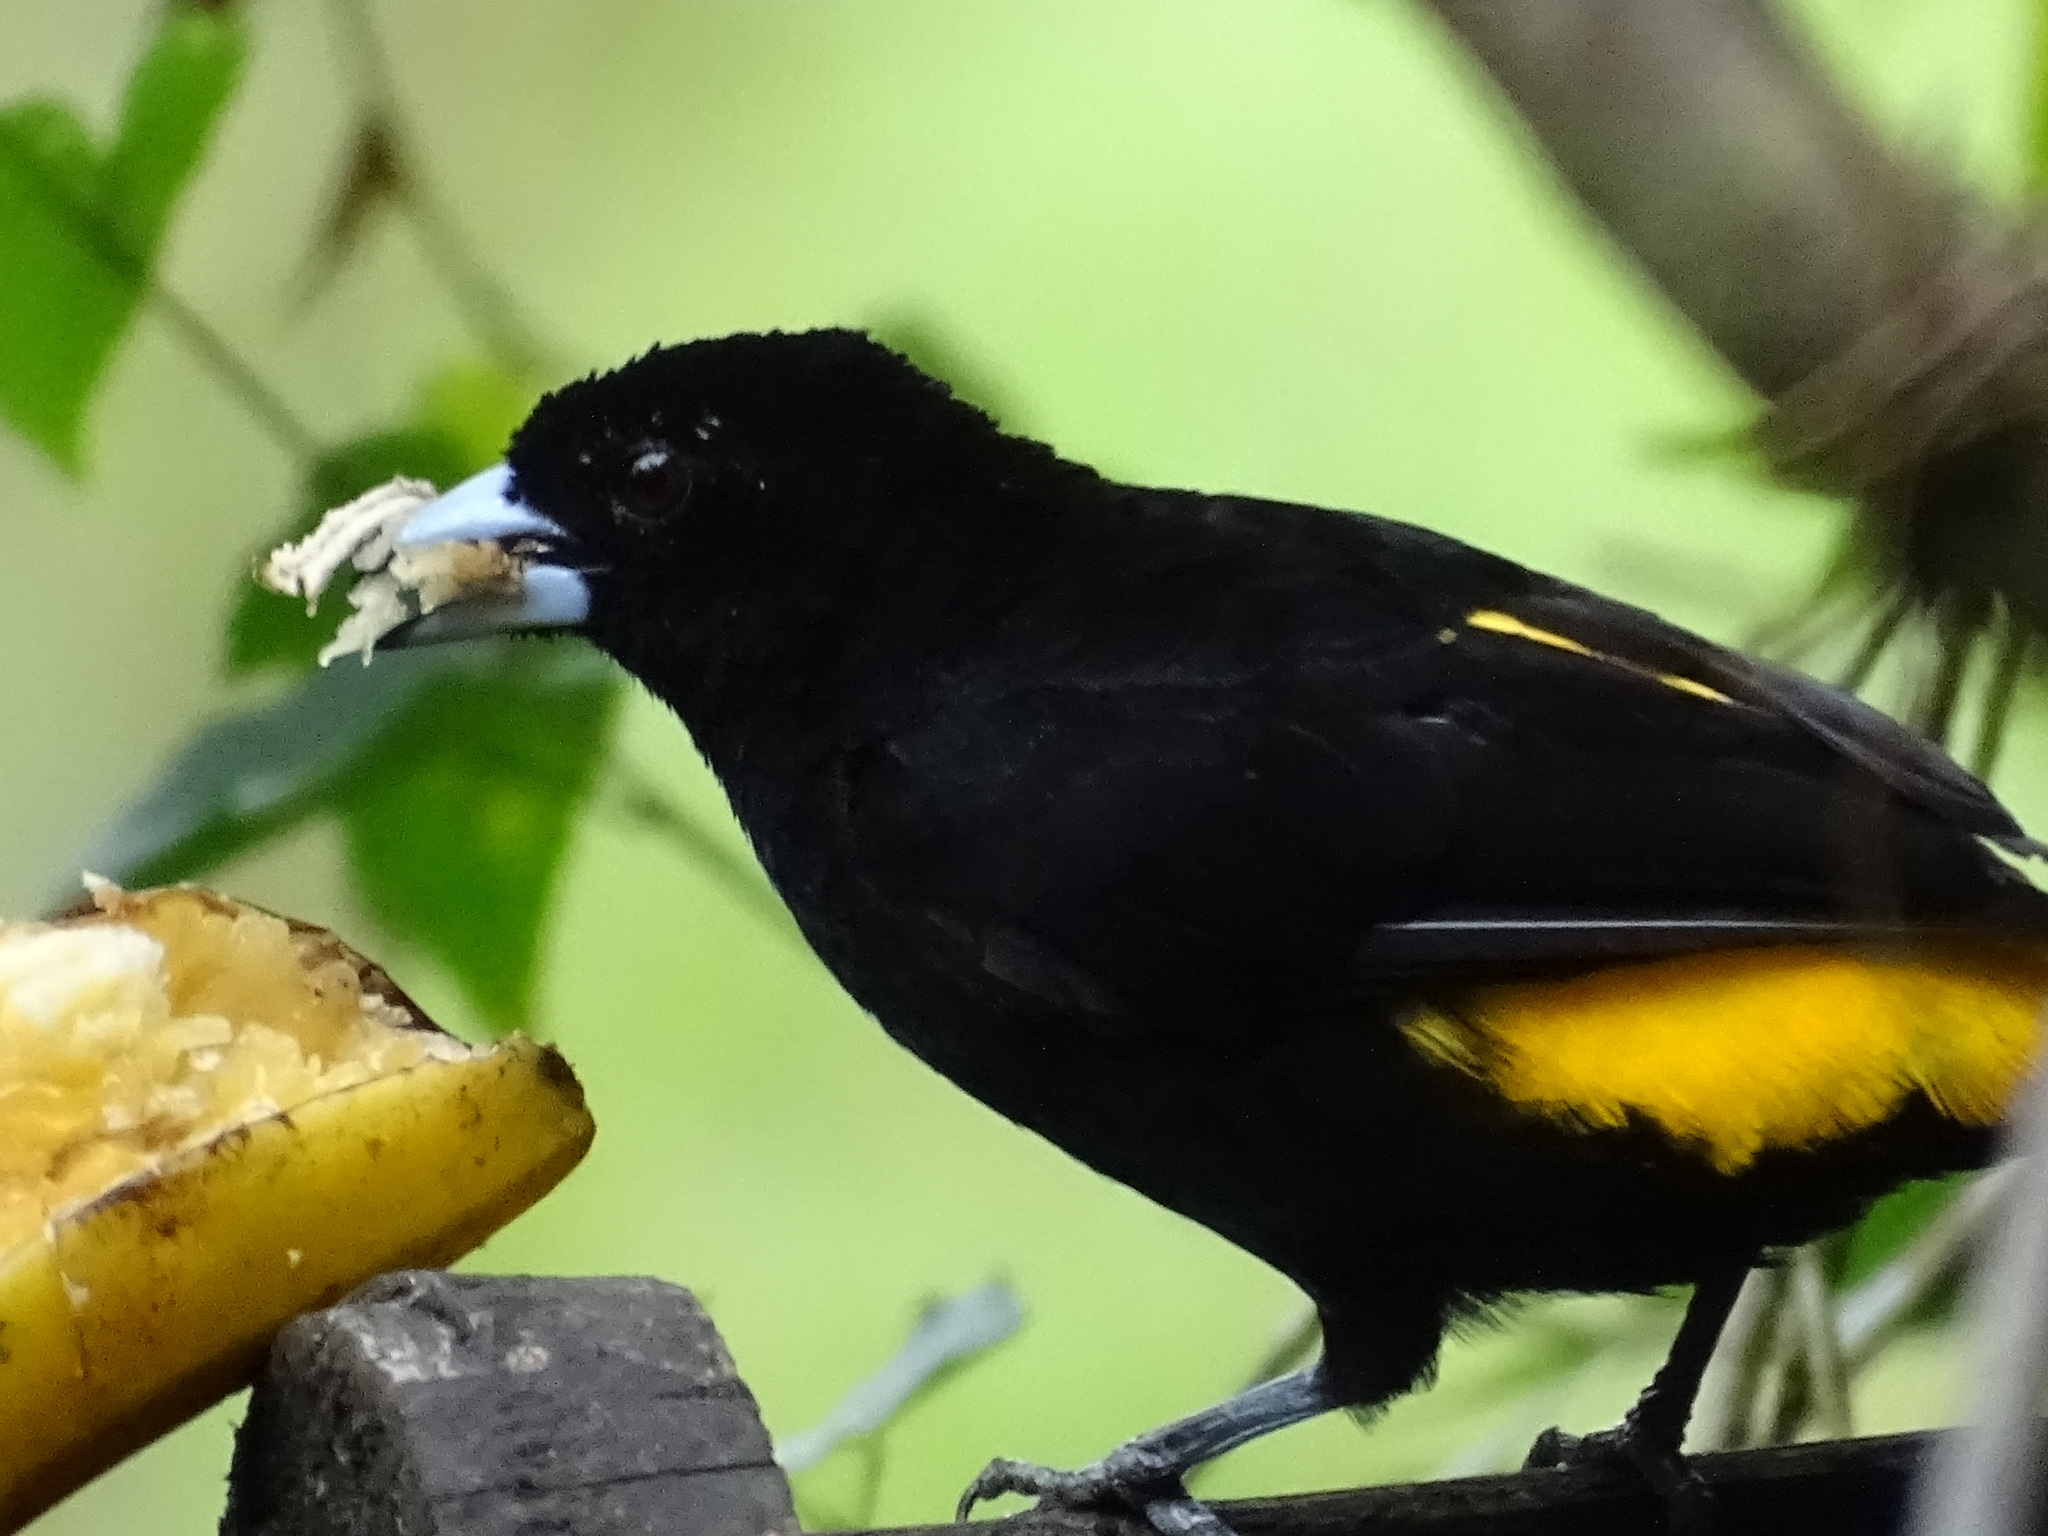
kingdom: Animalia
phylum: Chordata
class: Aves
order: Passeriformes
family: Thraupidae
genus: Ramphocelus
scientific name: Ramphocelus icteronotus
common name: Lemon-rumped tanager
